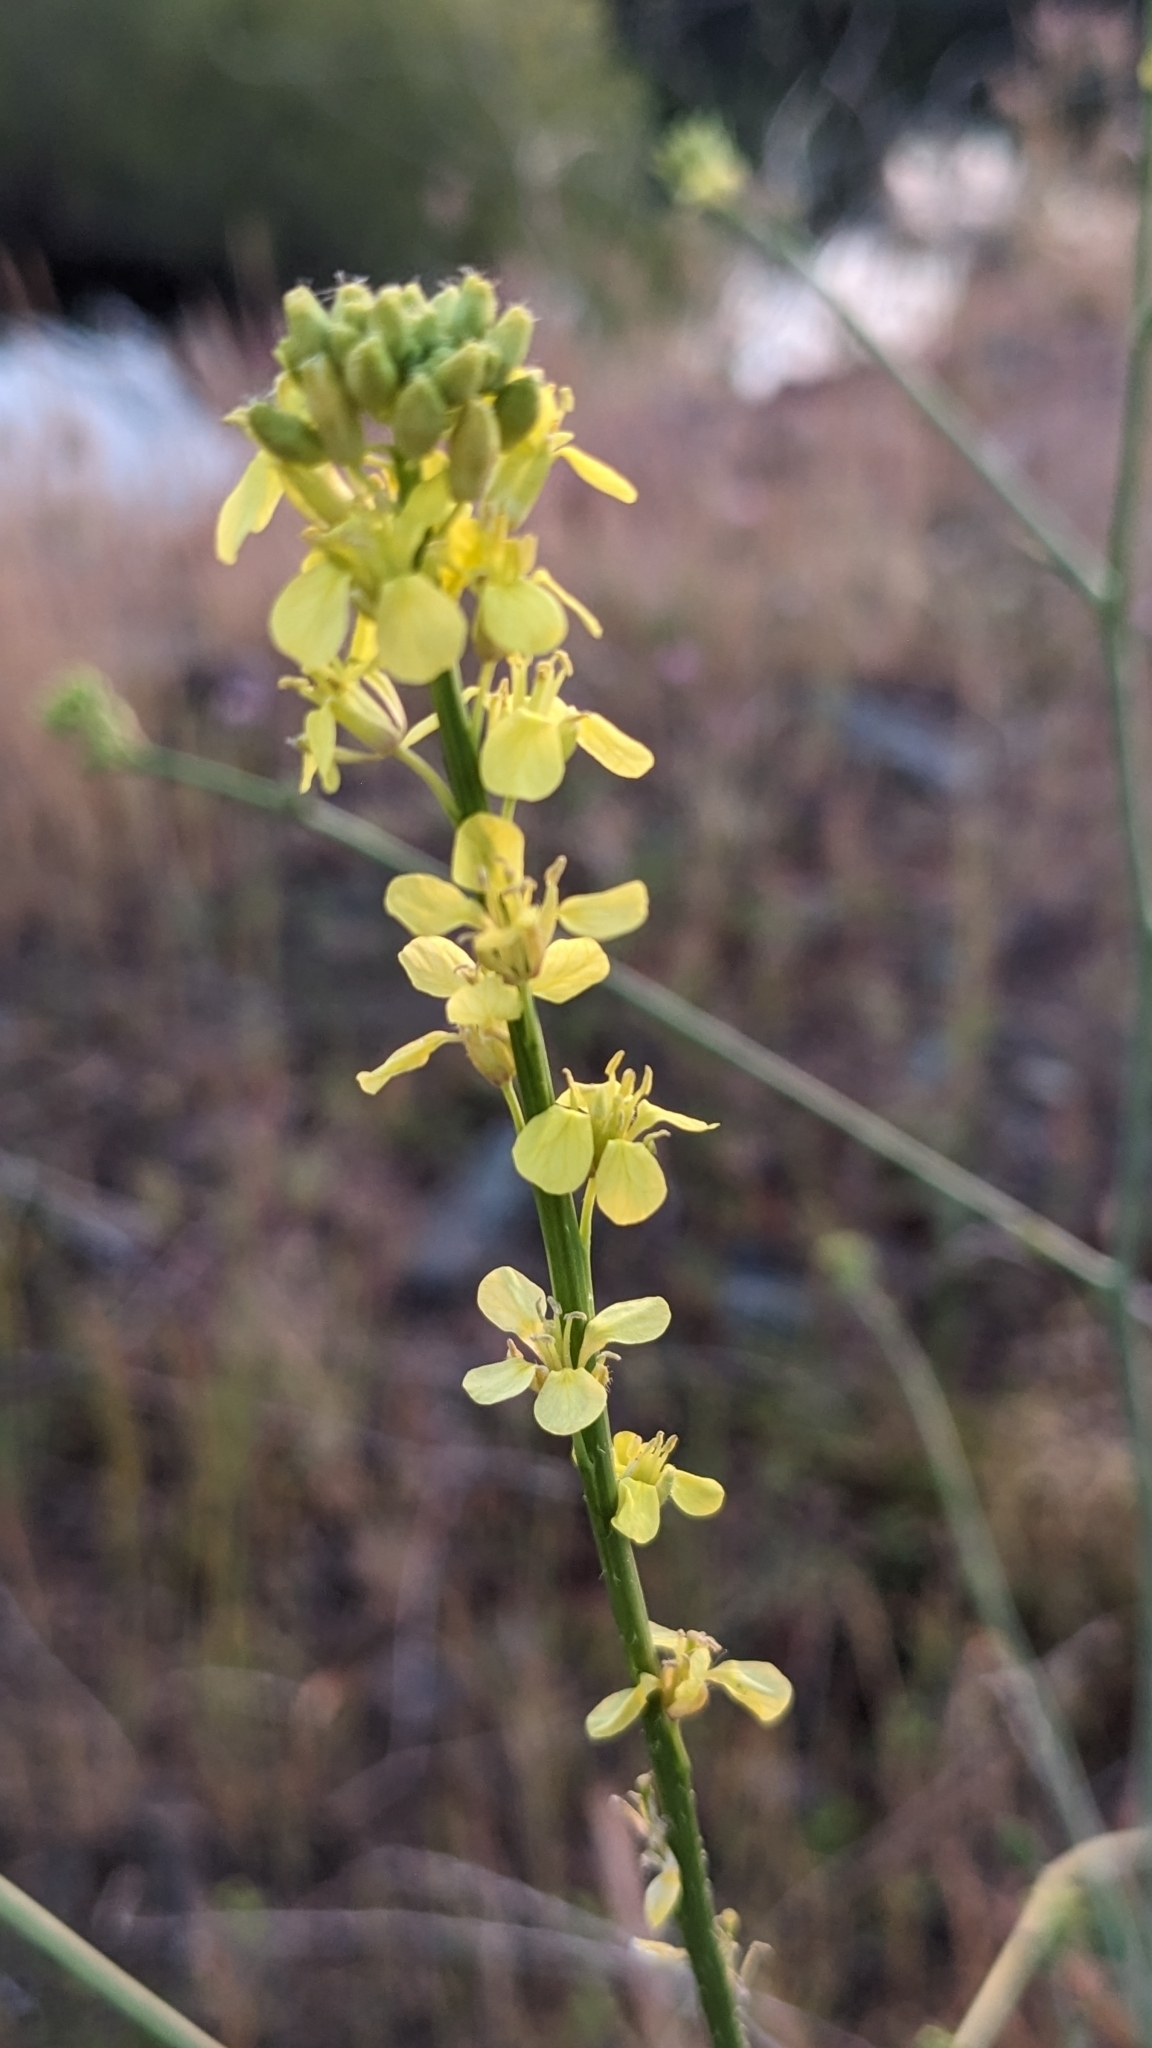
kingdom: Plantae
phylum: Tracheophyta
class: Magnoliopsida
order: Brassicales
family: Brassicaceae
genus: Hirschfeldia
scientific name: Hirschfeldia incana
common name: Hoary mustard
